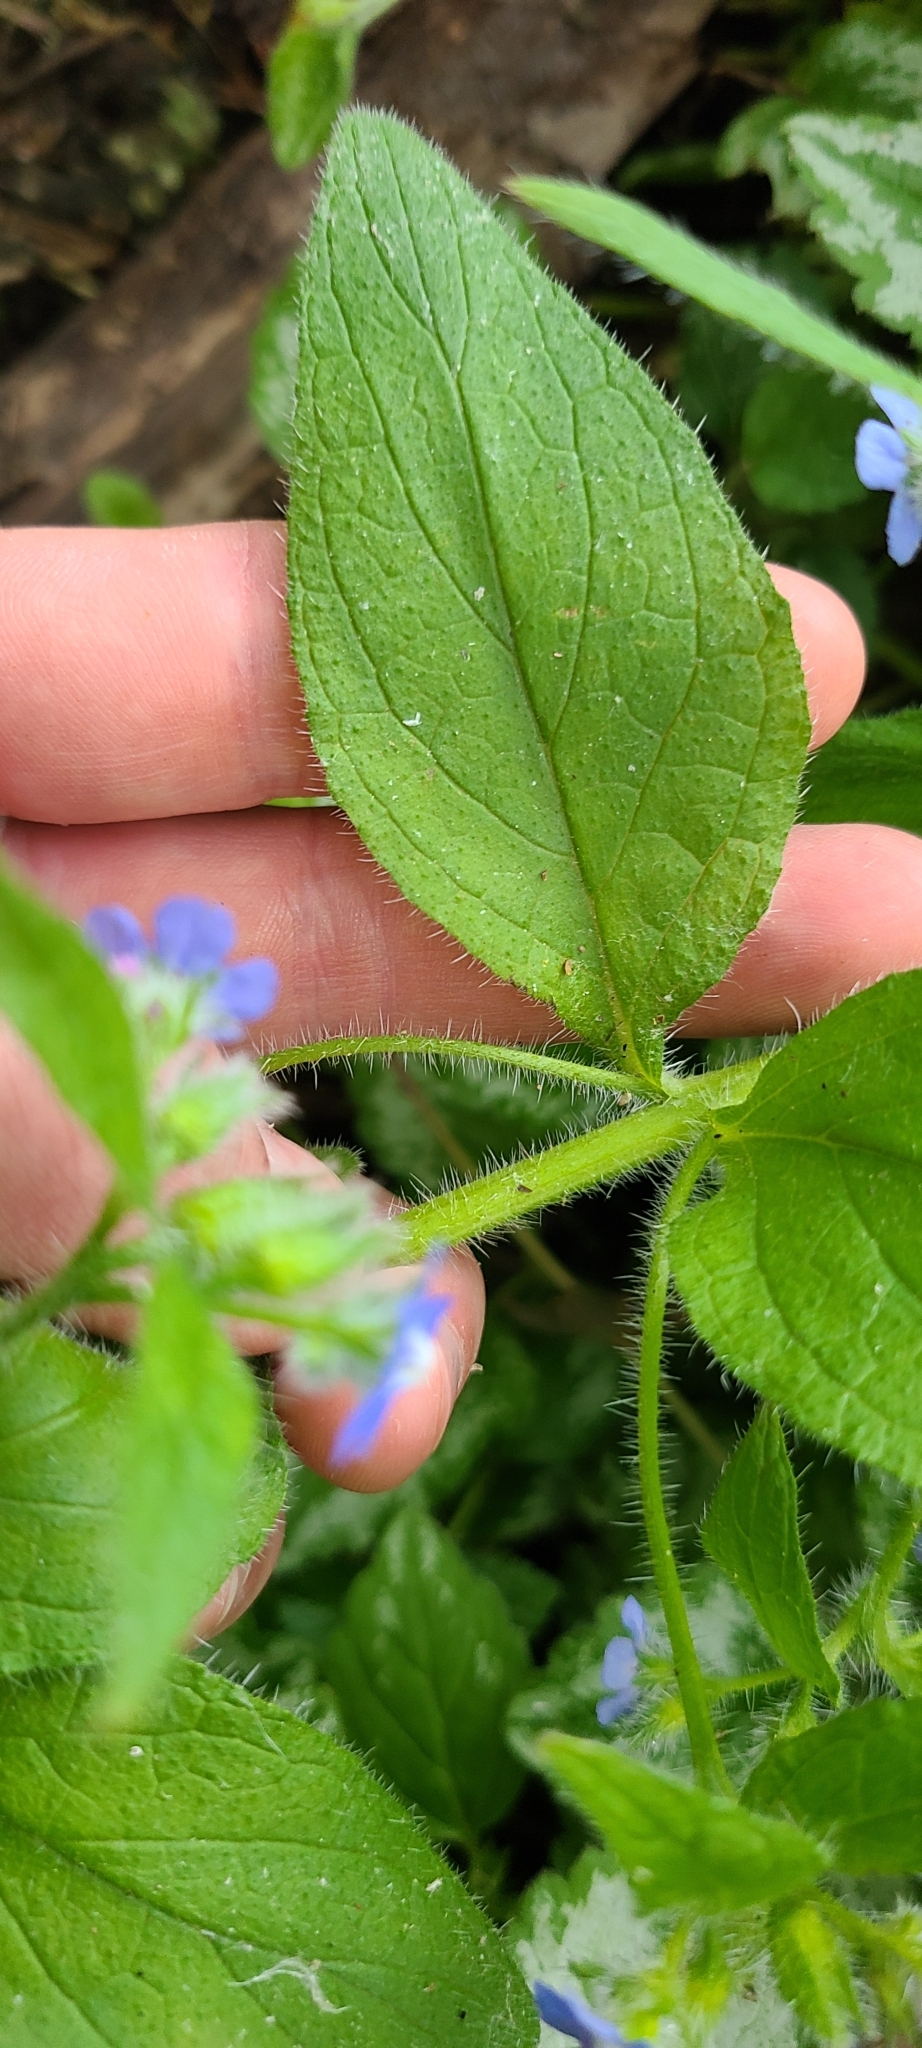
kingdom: Plantae
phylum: Tracheophyta
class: Magnoliopsida
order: Boraginales
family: Boraginaceae
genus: Pentaglottis
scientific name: Pentaglottis sempervirens
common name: Green alkanet
